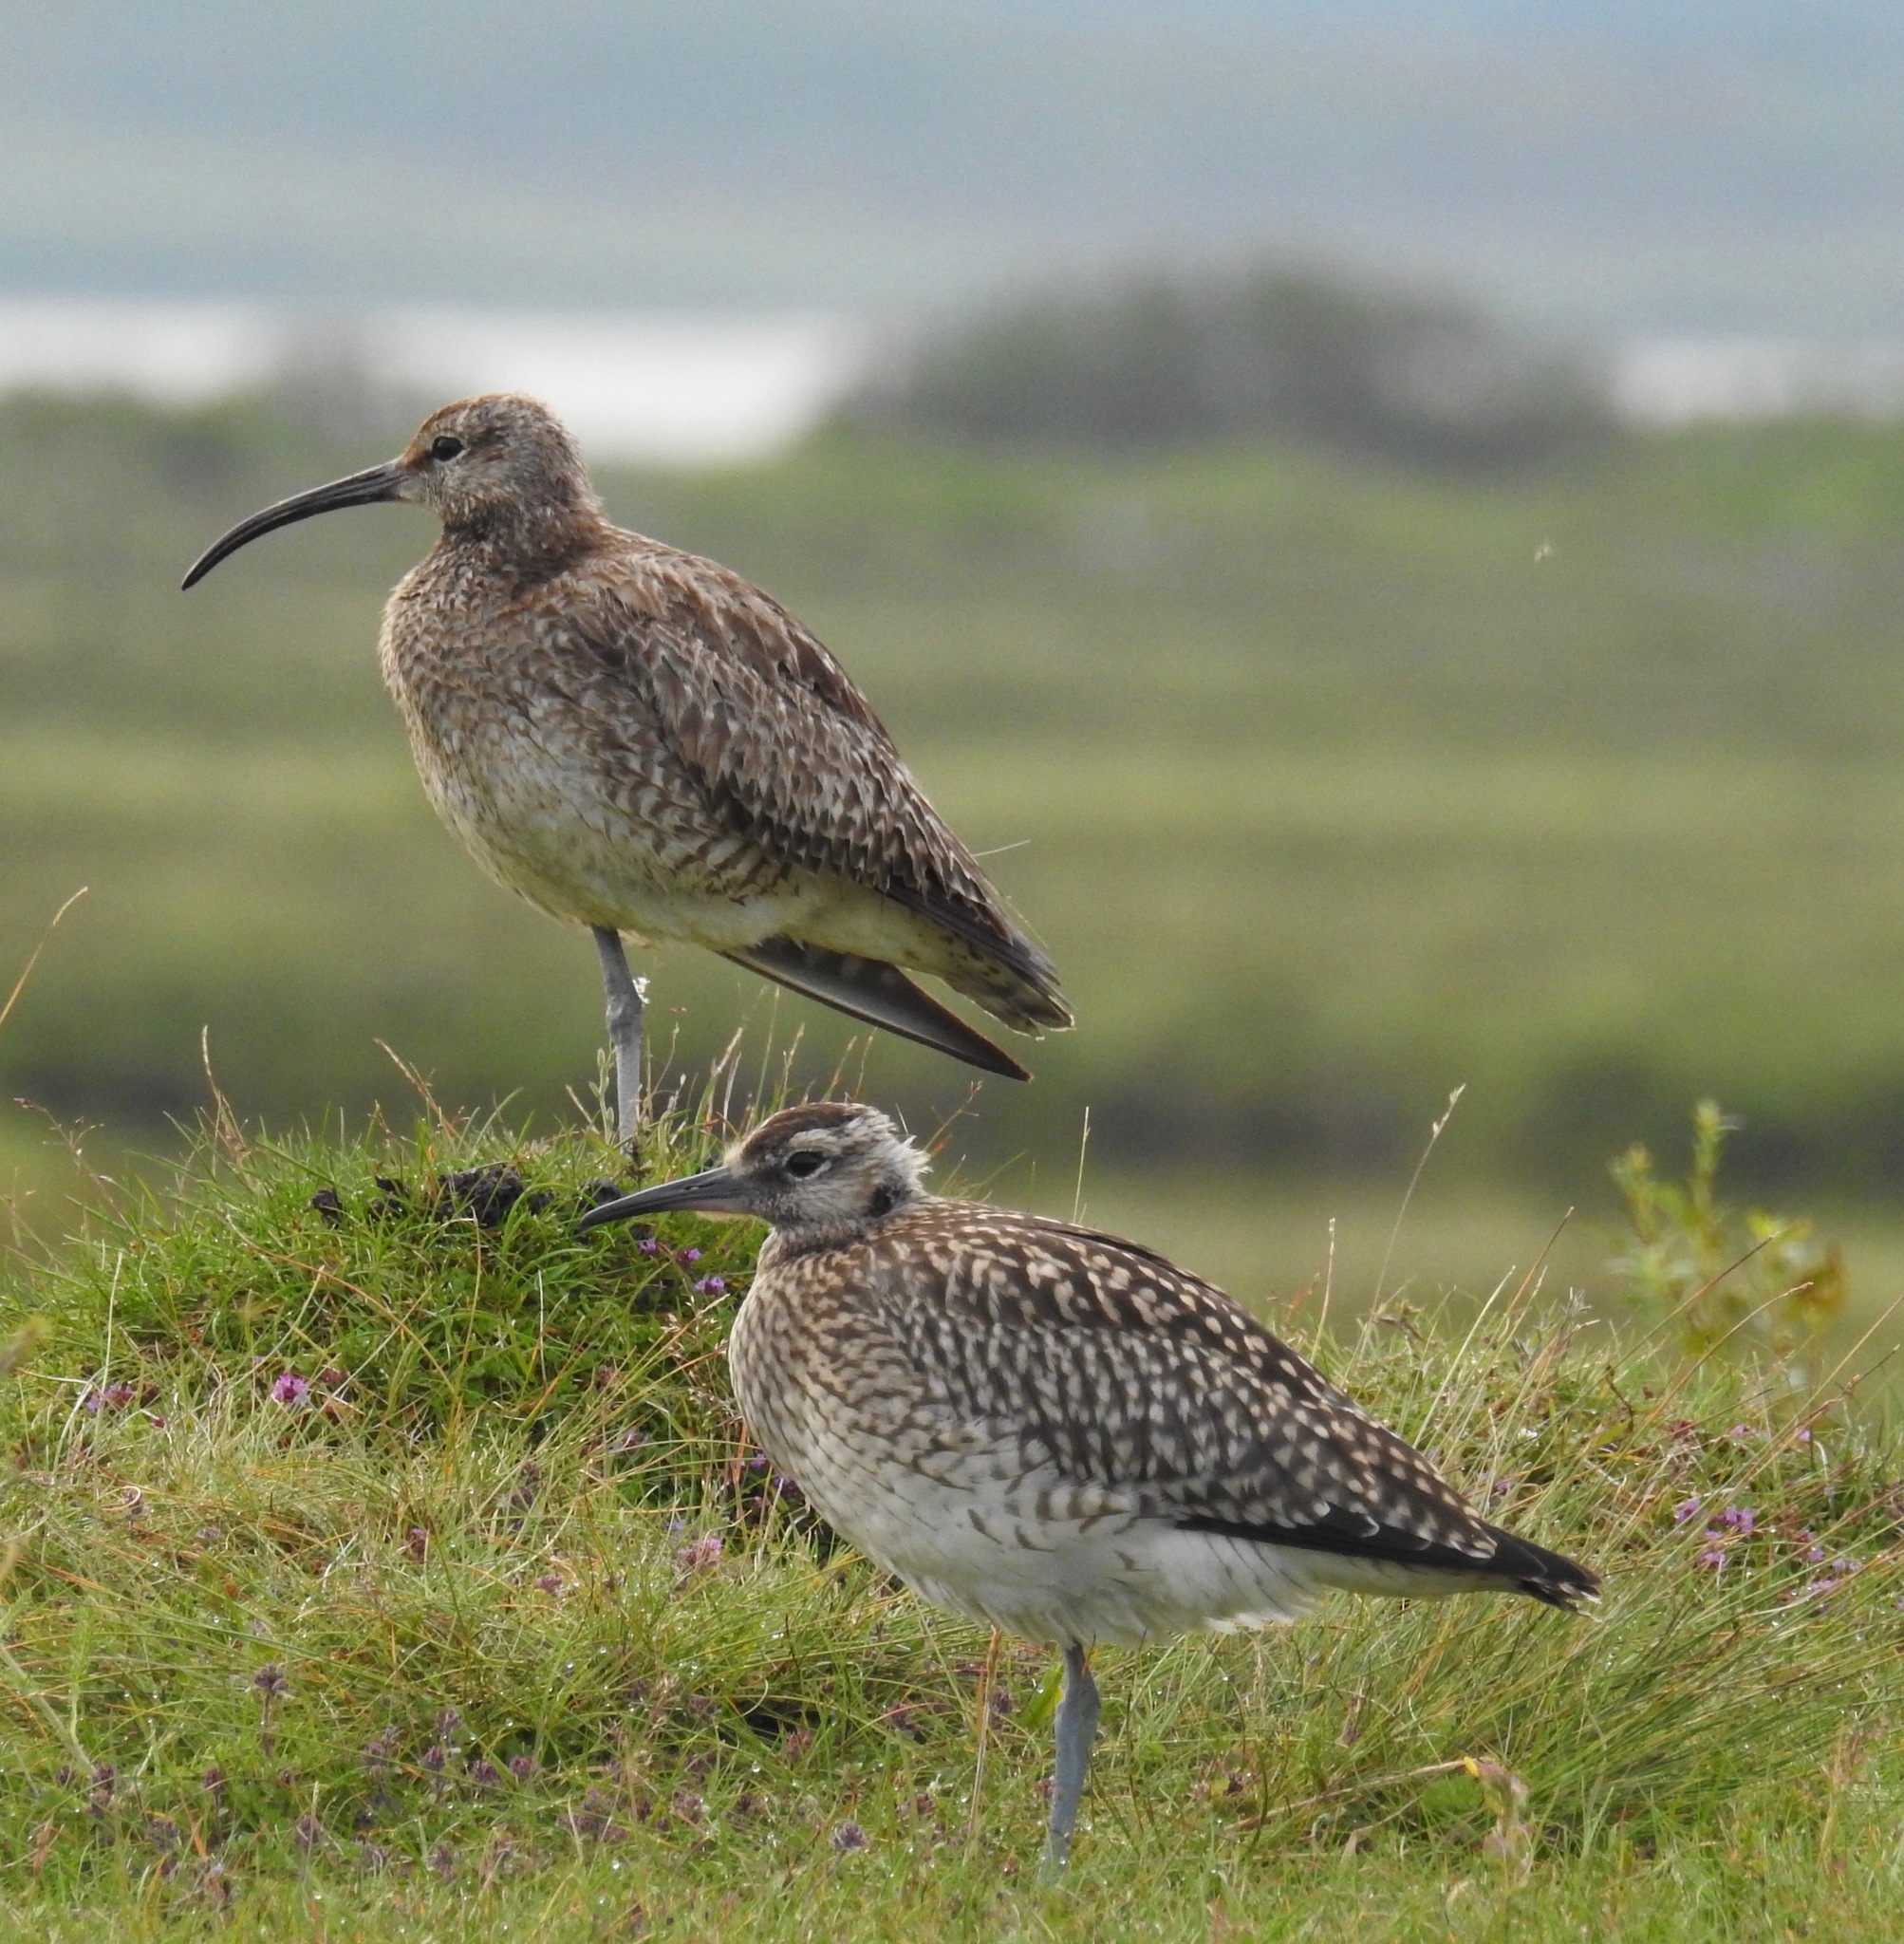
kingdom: Animalia
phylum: Chordata
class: Aves
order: Charadriiformes
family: Scolopacidae
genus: Numenius
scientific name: Numenius phaeopus
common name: Whimbrel
